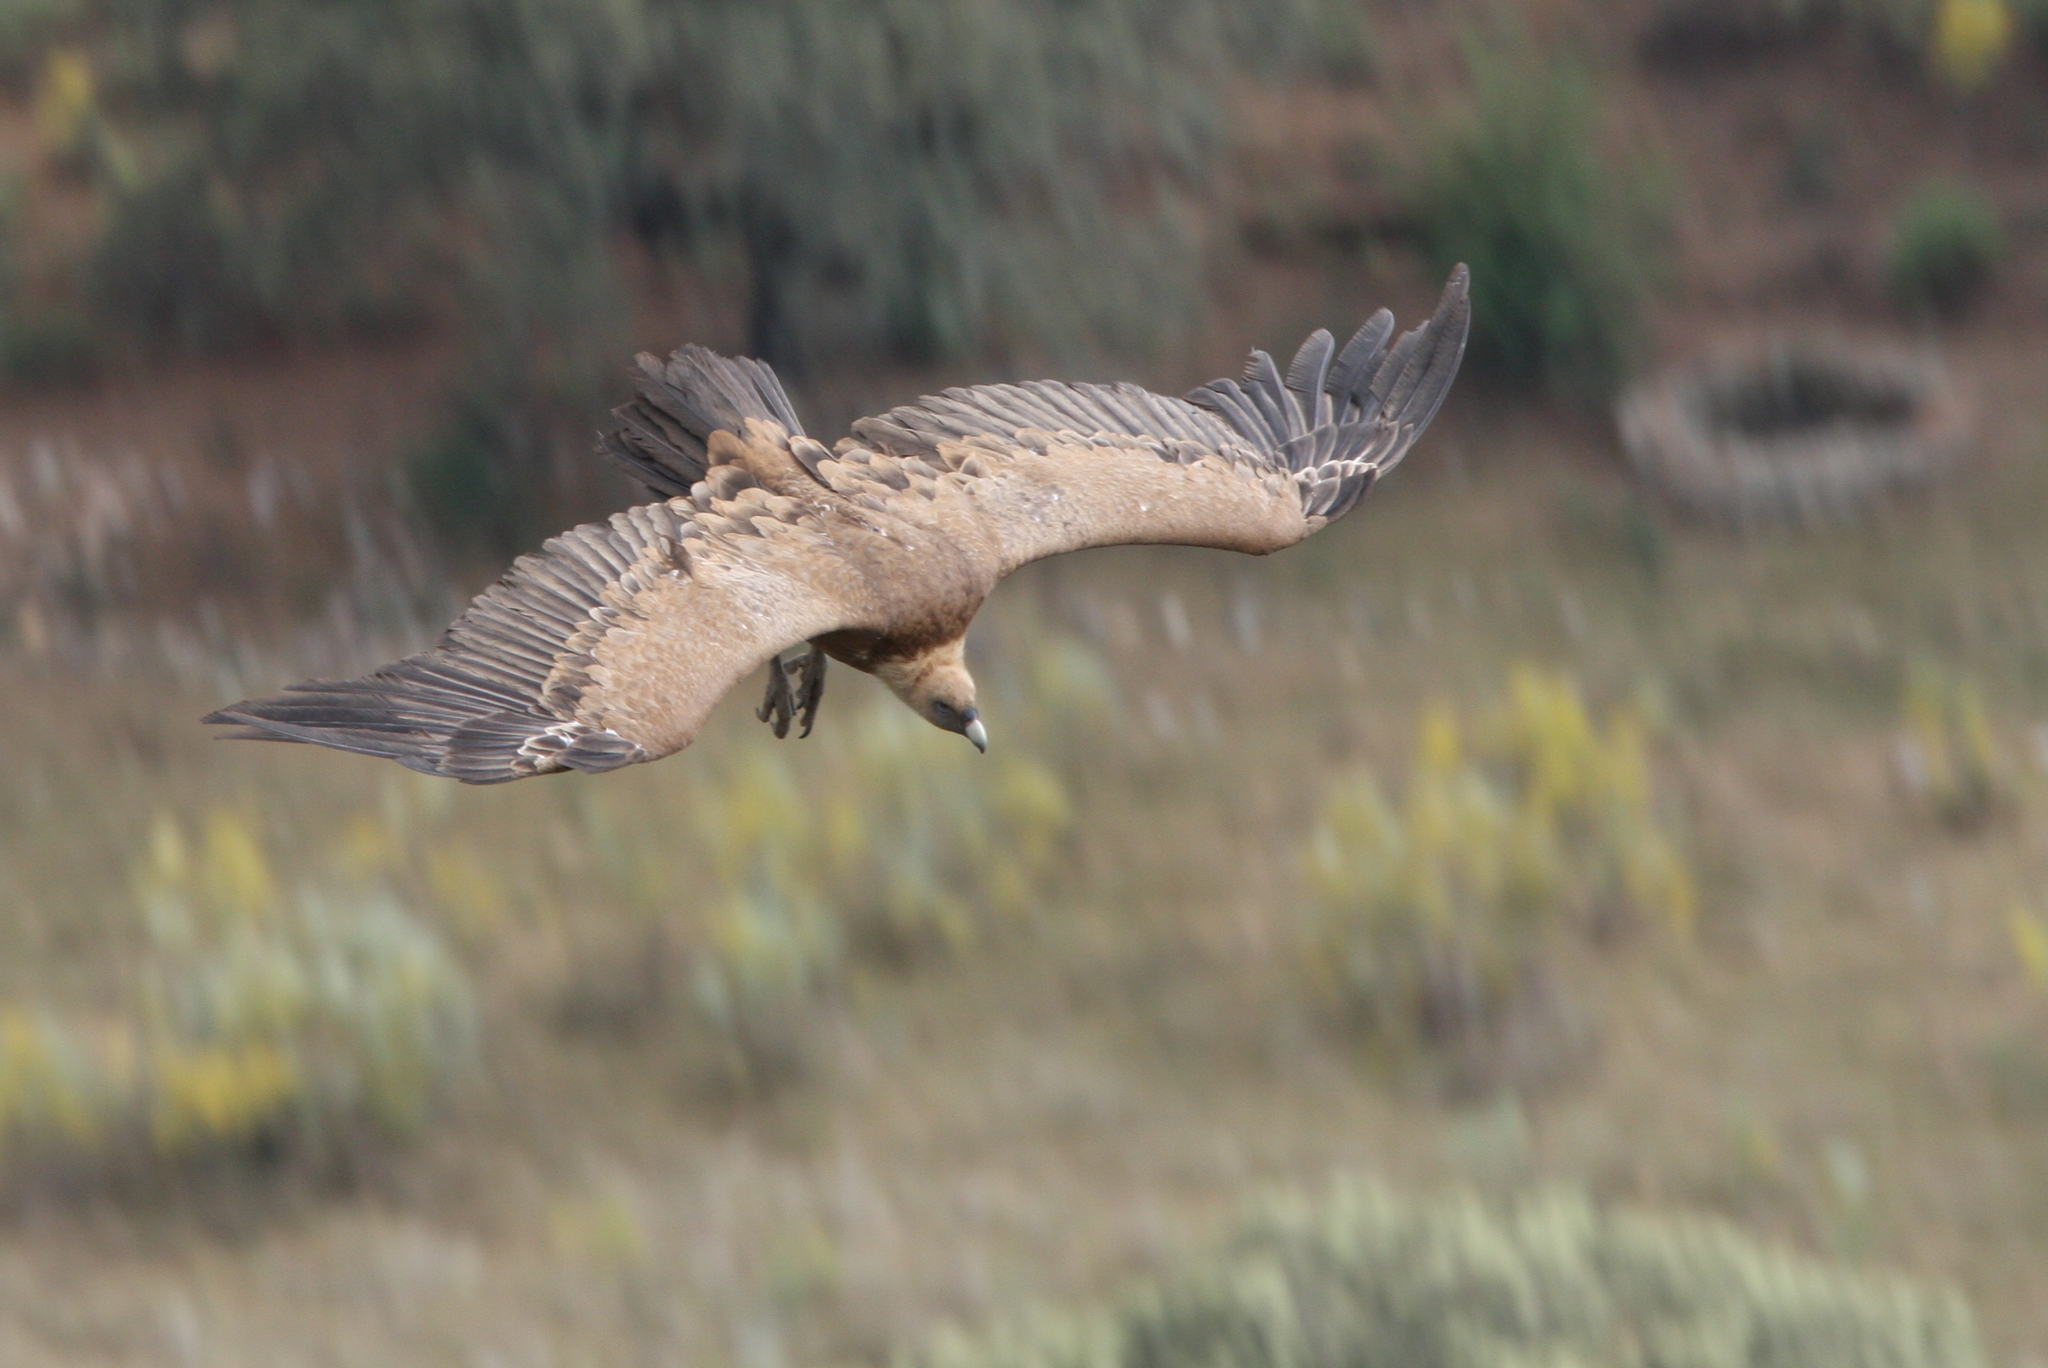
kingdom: Animalia
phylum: Chordata
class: Aves
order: Accipitriformes
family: Accipitridae
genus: Gyps
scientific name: Gyps fulvus
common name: Griffon vulture
